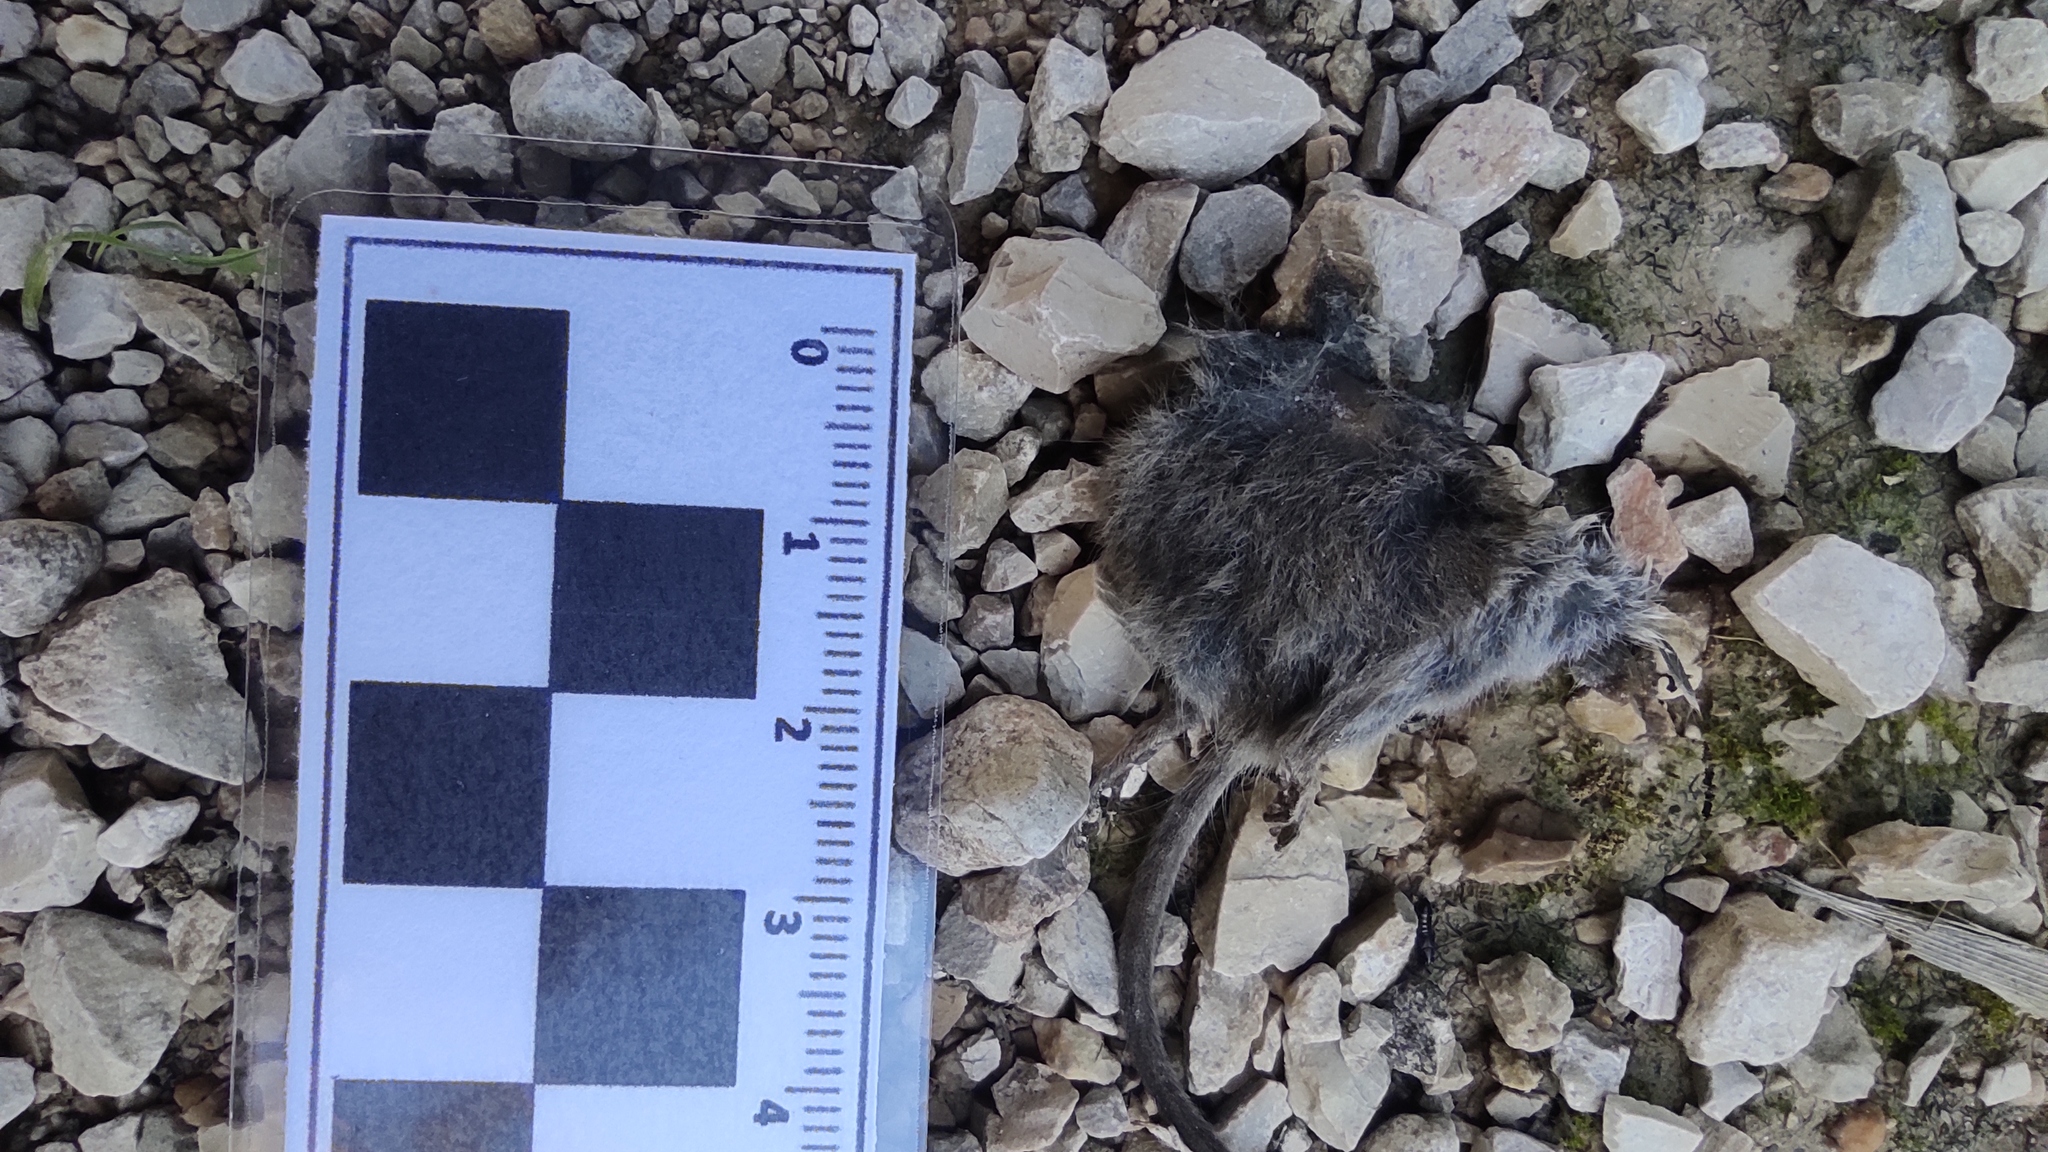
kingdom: Animalia
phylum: Chordata
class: Mammalia
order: Soricomorpha
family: Soricidae
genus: Crocidura
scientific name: Crocidura russula
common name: Greater white-toothed shrew
